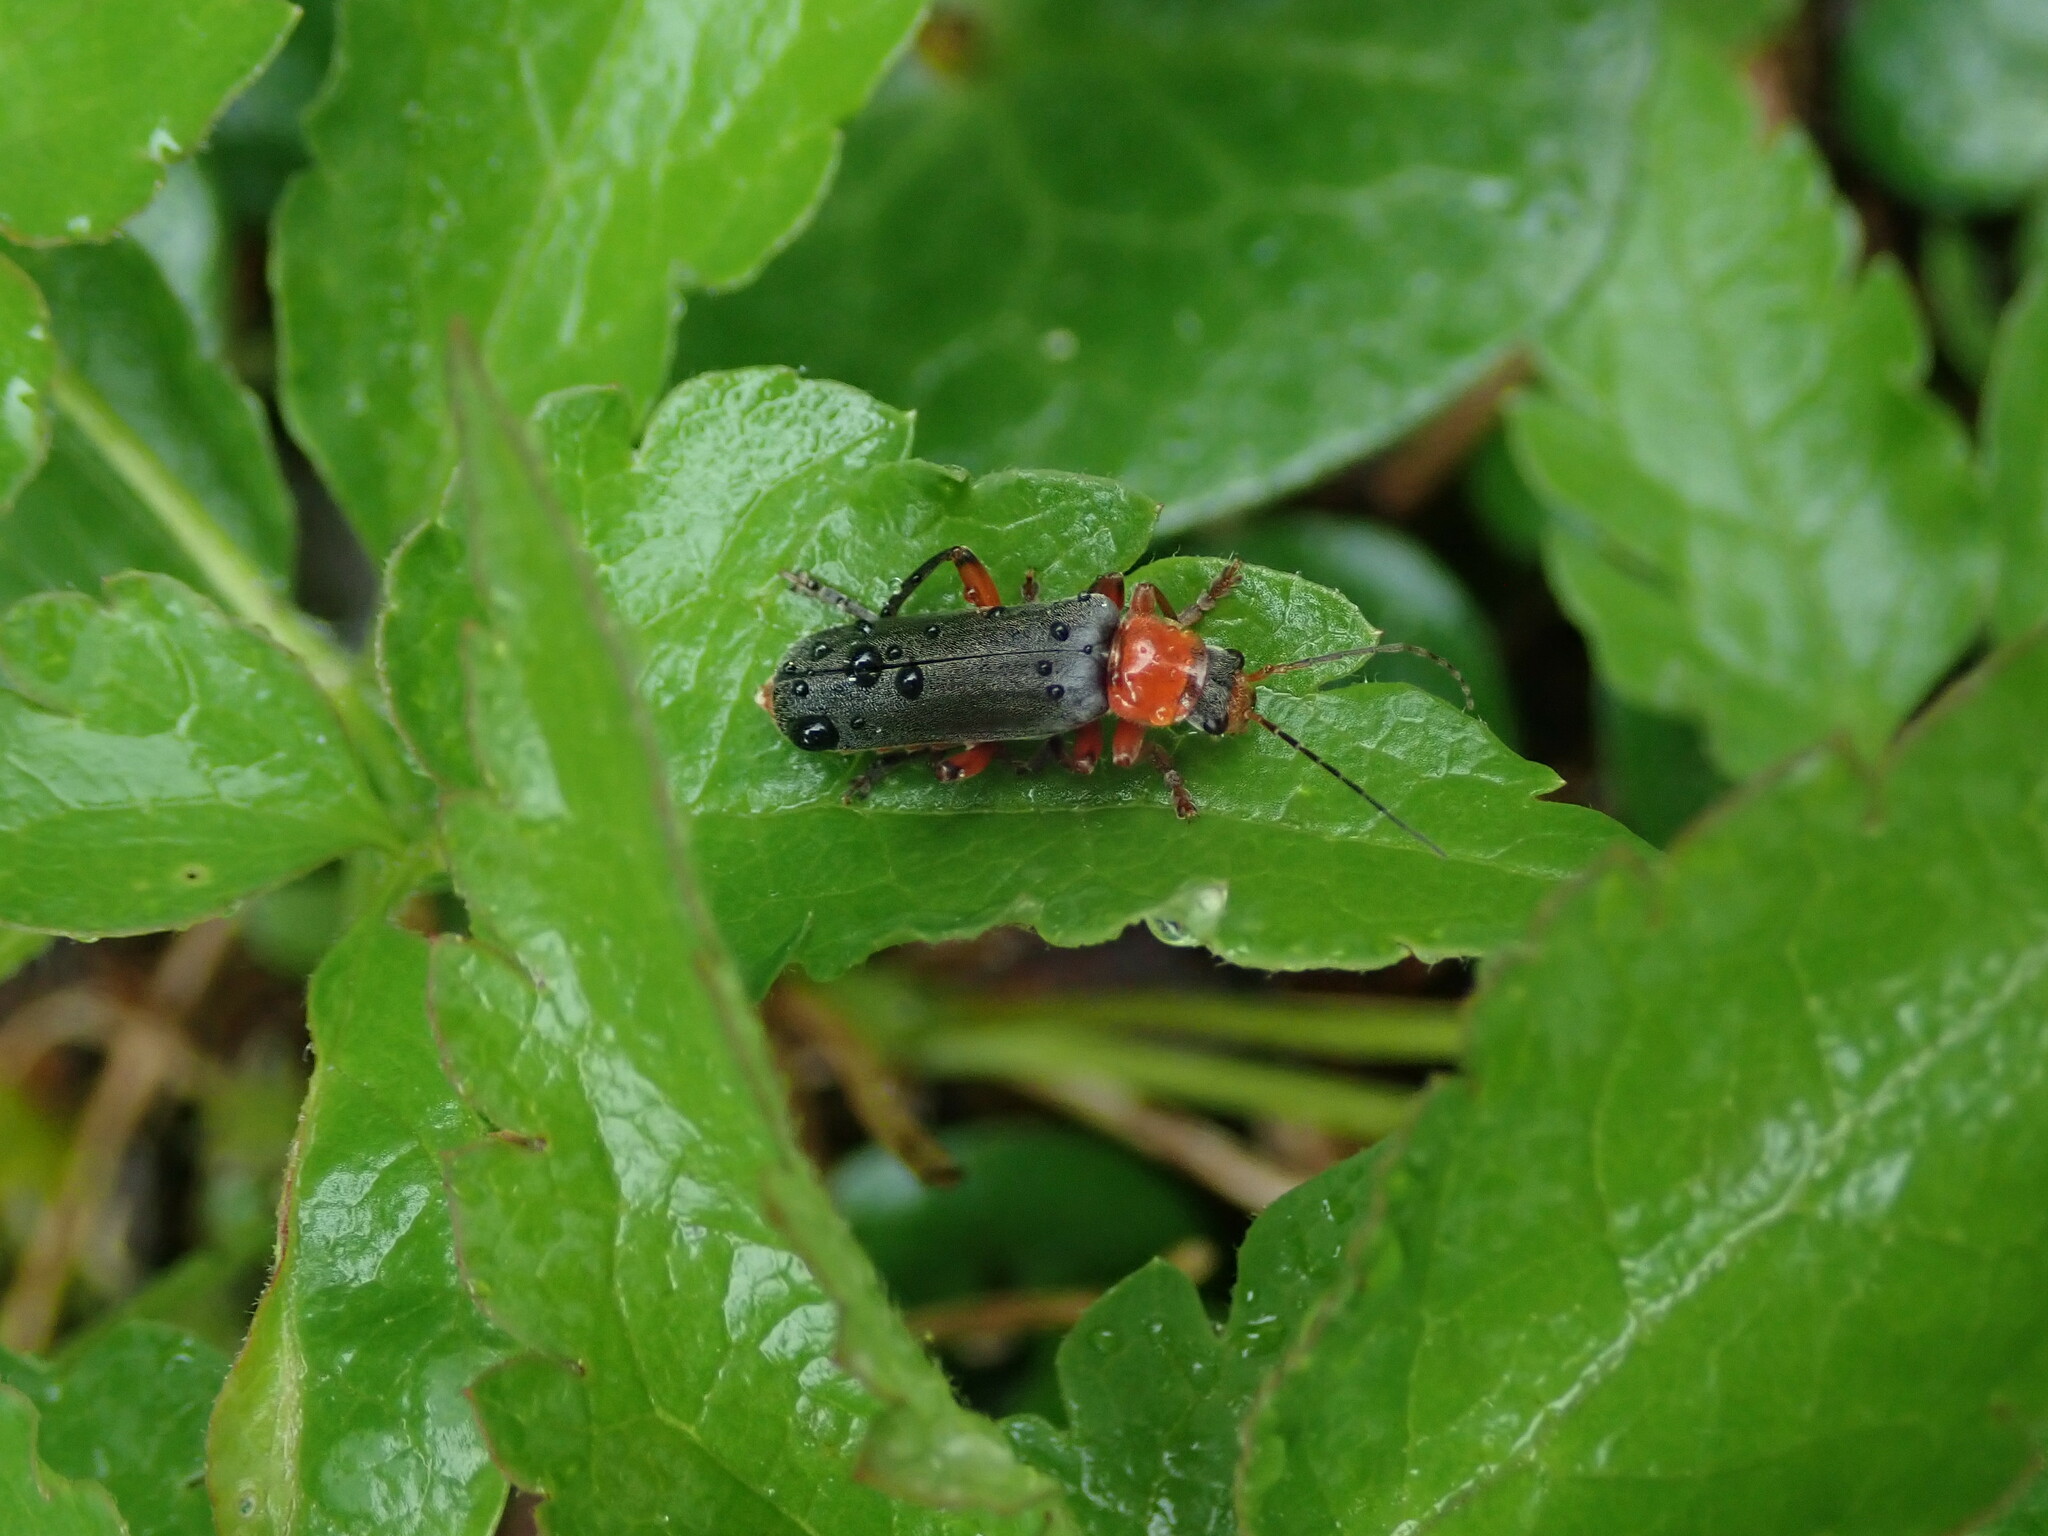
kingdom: Animalia
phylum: Arthropoda
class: Insecta
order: Coleoptera
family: Cantharidae
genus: Cantharis
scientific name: Cantharis pellucida
